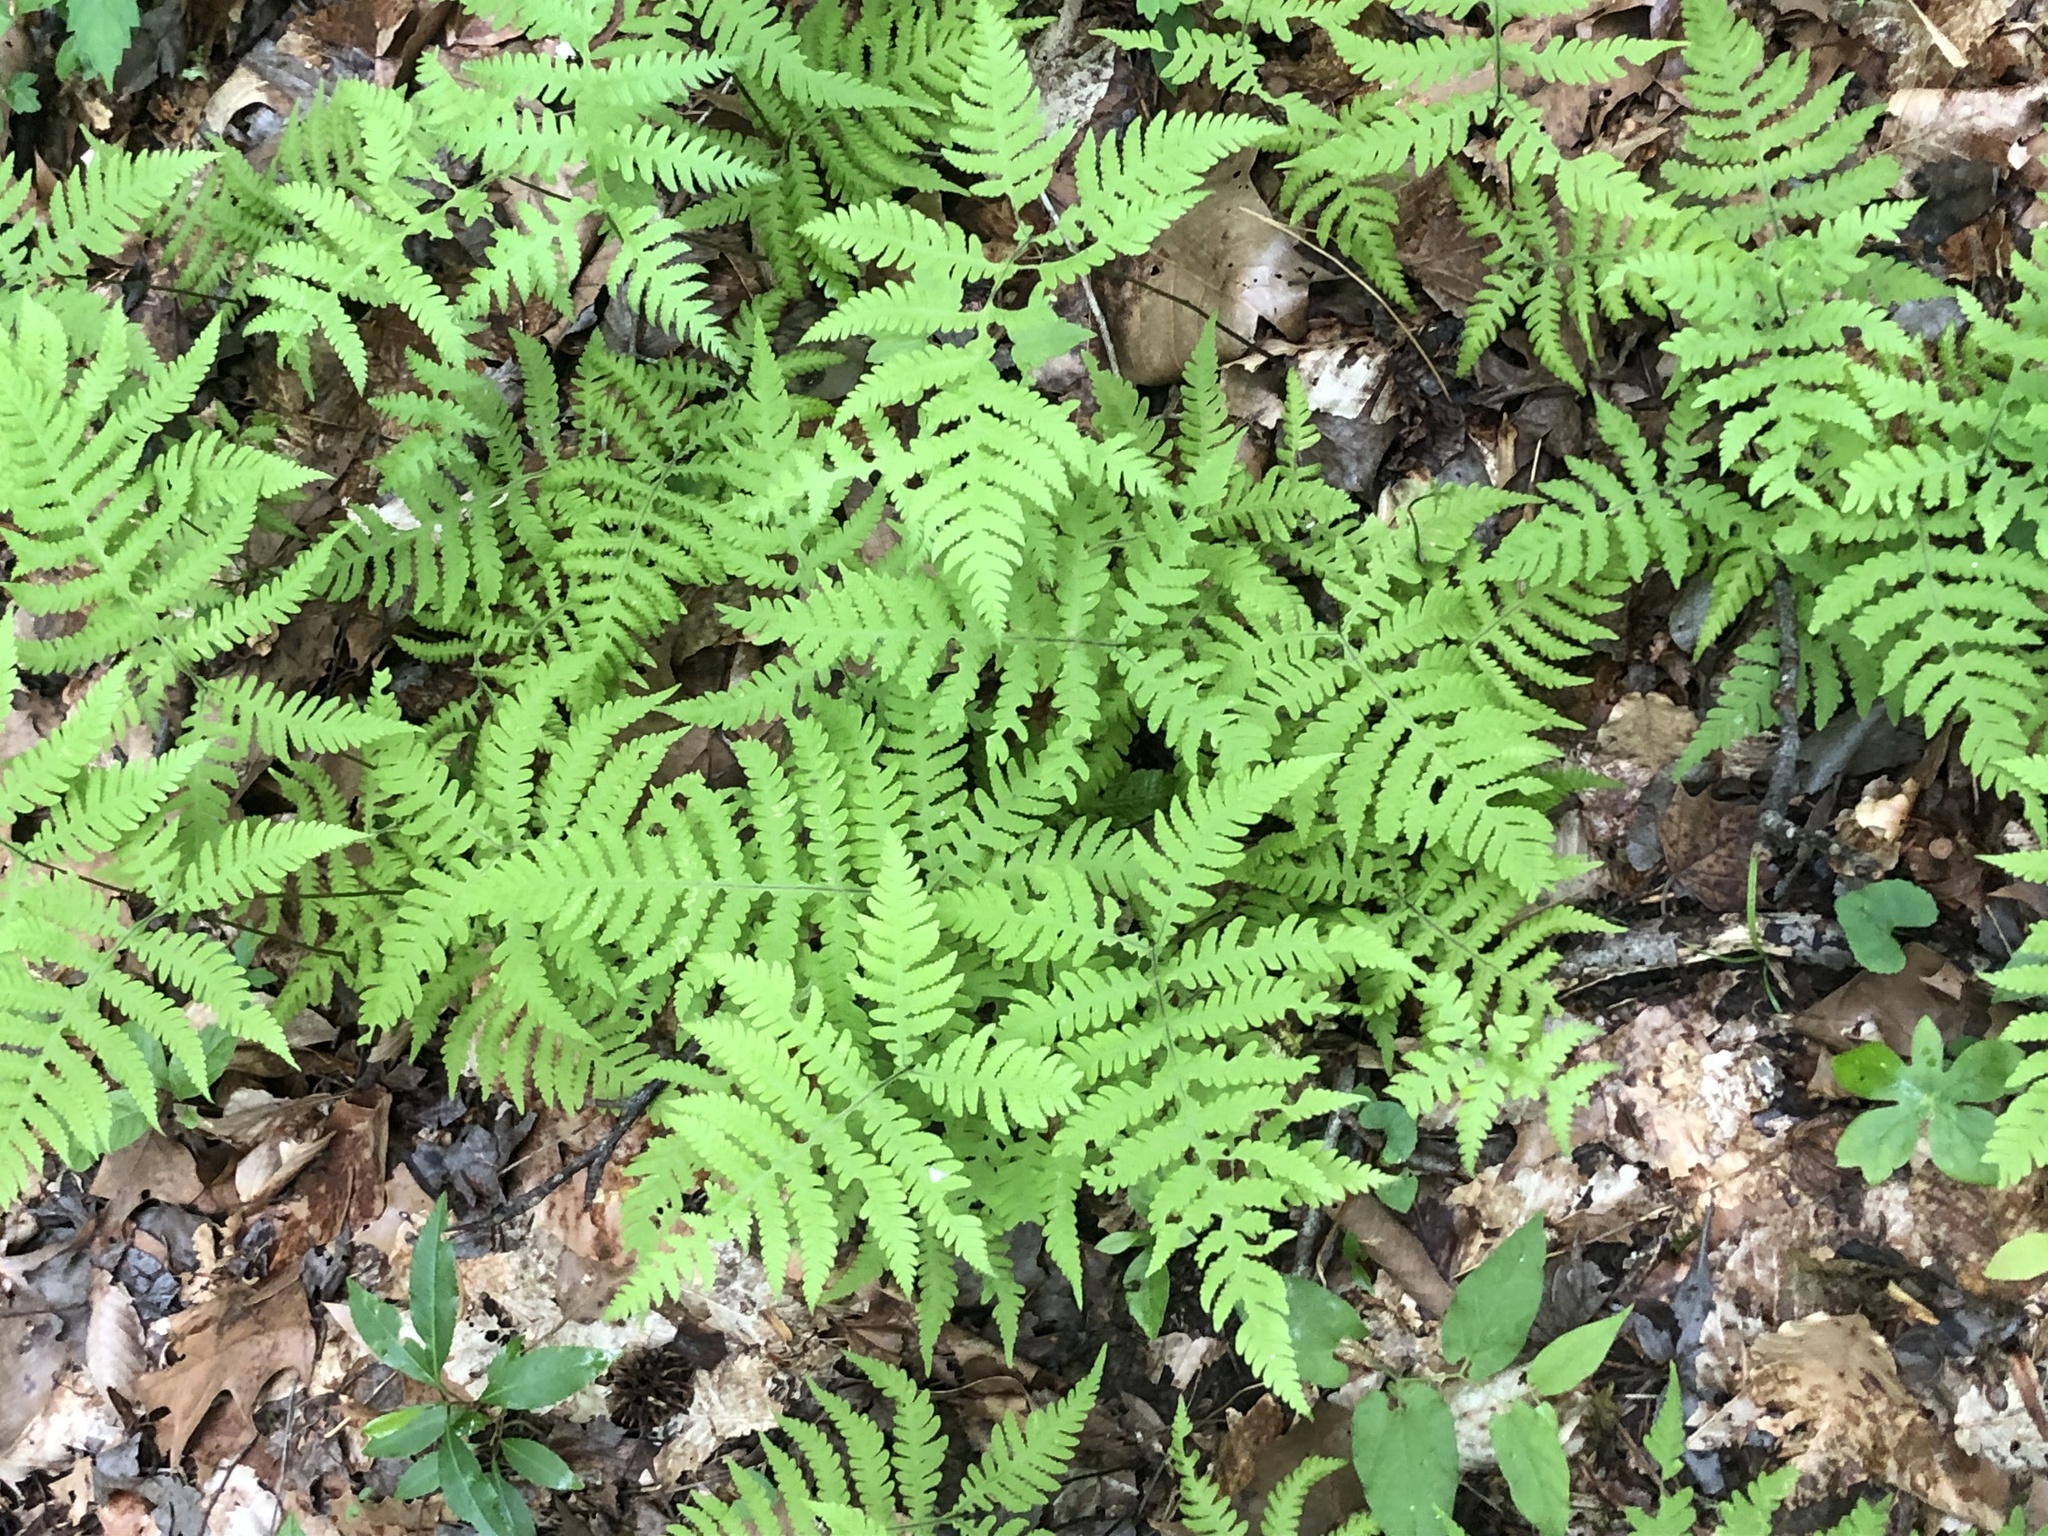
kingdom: Plantae
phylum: Tracheophyta
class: Polypodiopsida
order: Polypodiales
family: Thelypteridaceae
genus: Phegopteris
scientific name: Phegopteris hexagonoptera
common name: Broad beech fern
